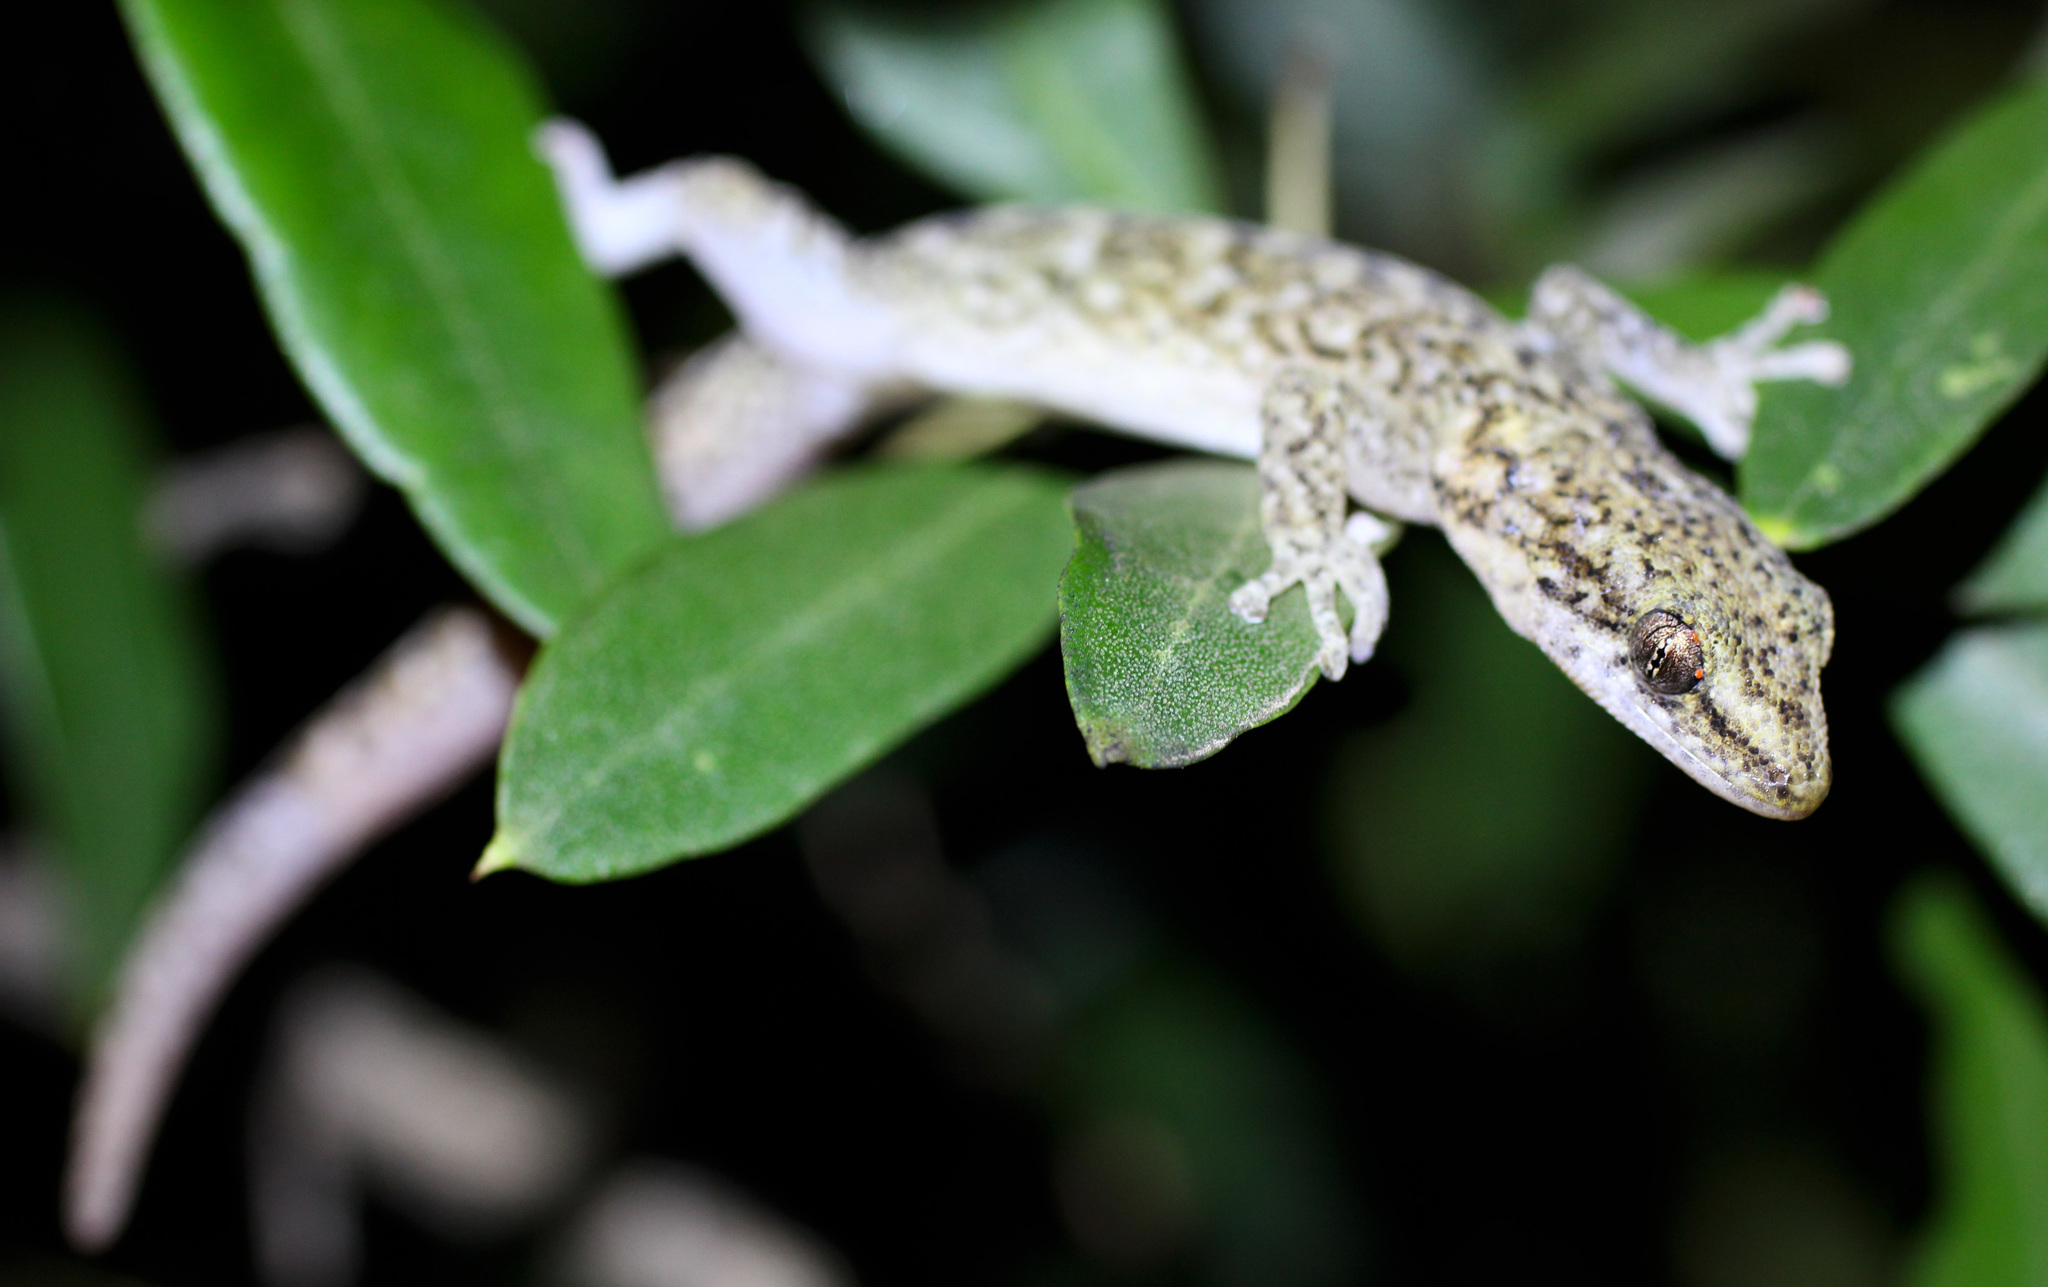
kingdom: Animalia
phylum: Chordata
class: Squamata
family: Gekkonidae
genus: Afrogecko
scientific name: Afrogecko porphyreus
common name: Marbled leaf-toed gecko
